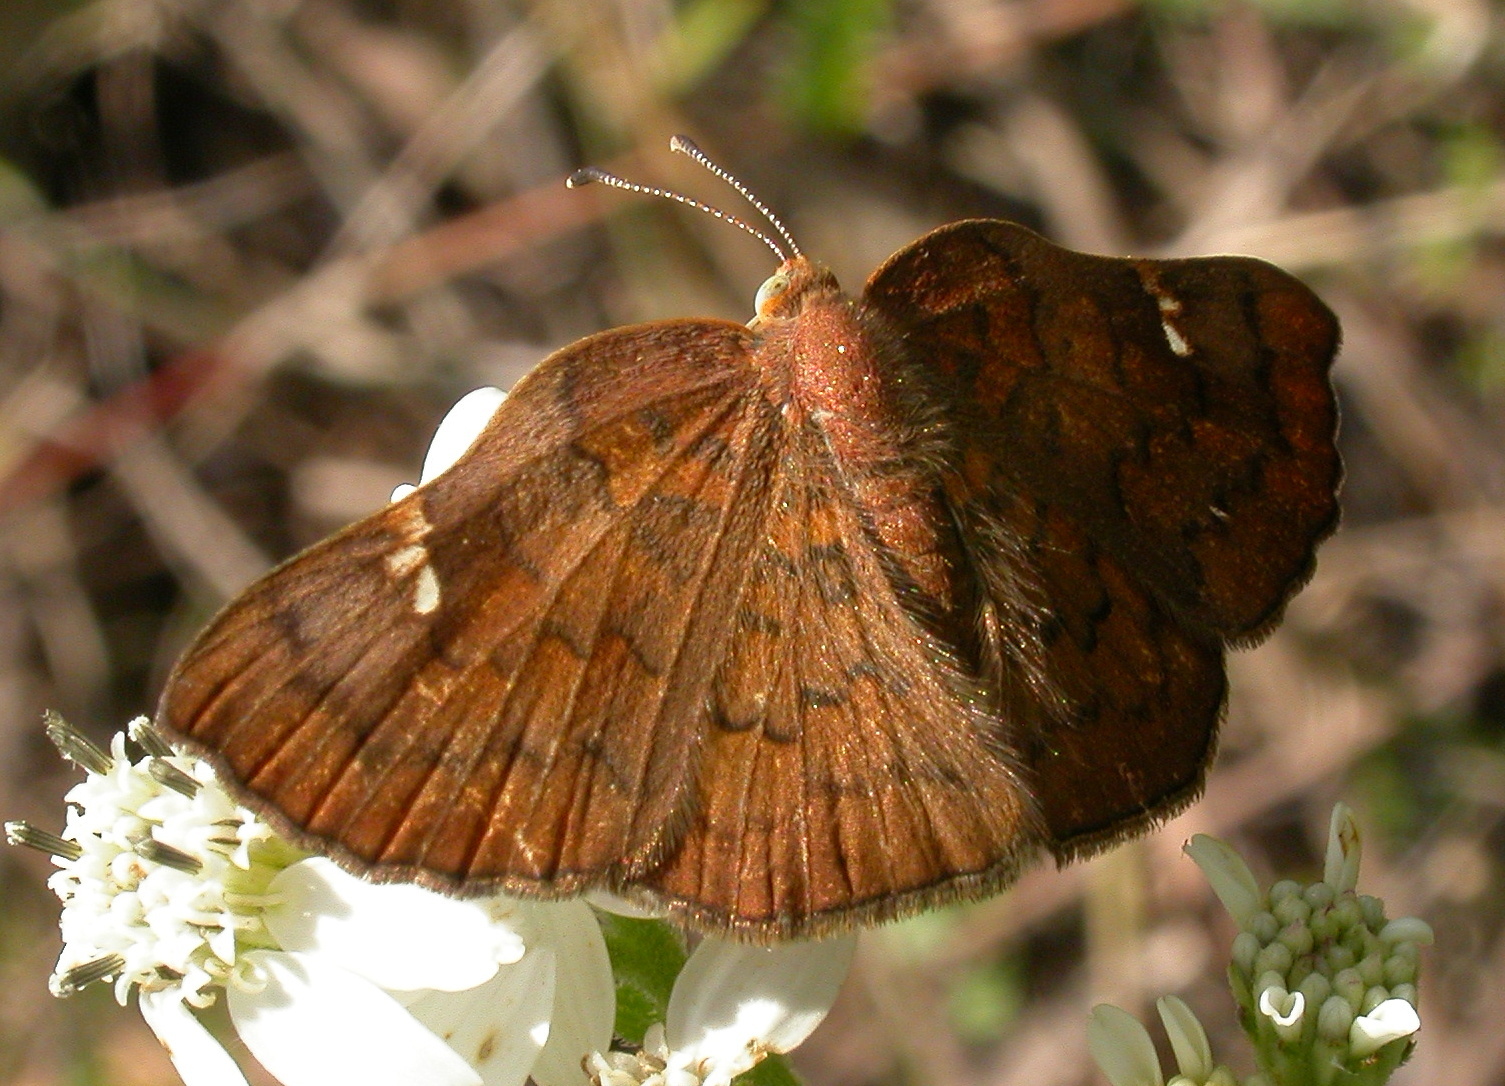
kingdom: Animalia
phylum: Arthropoda
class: Insecta
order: Lepidoptera
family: Riodinidae
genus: Curvie
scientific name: Curvie emesia
